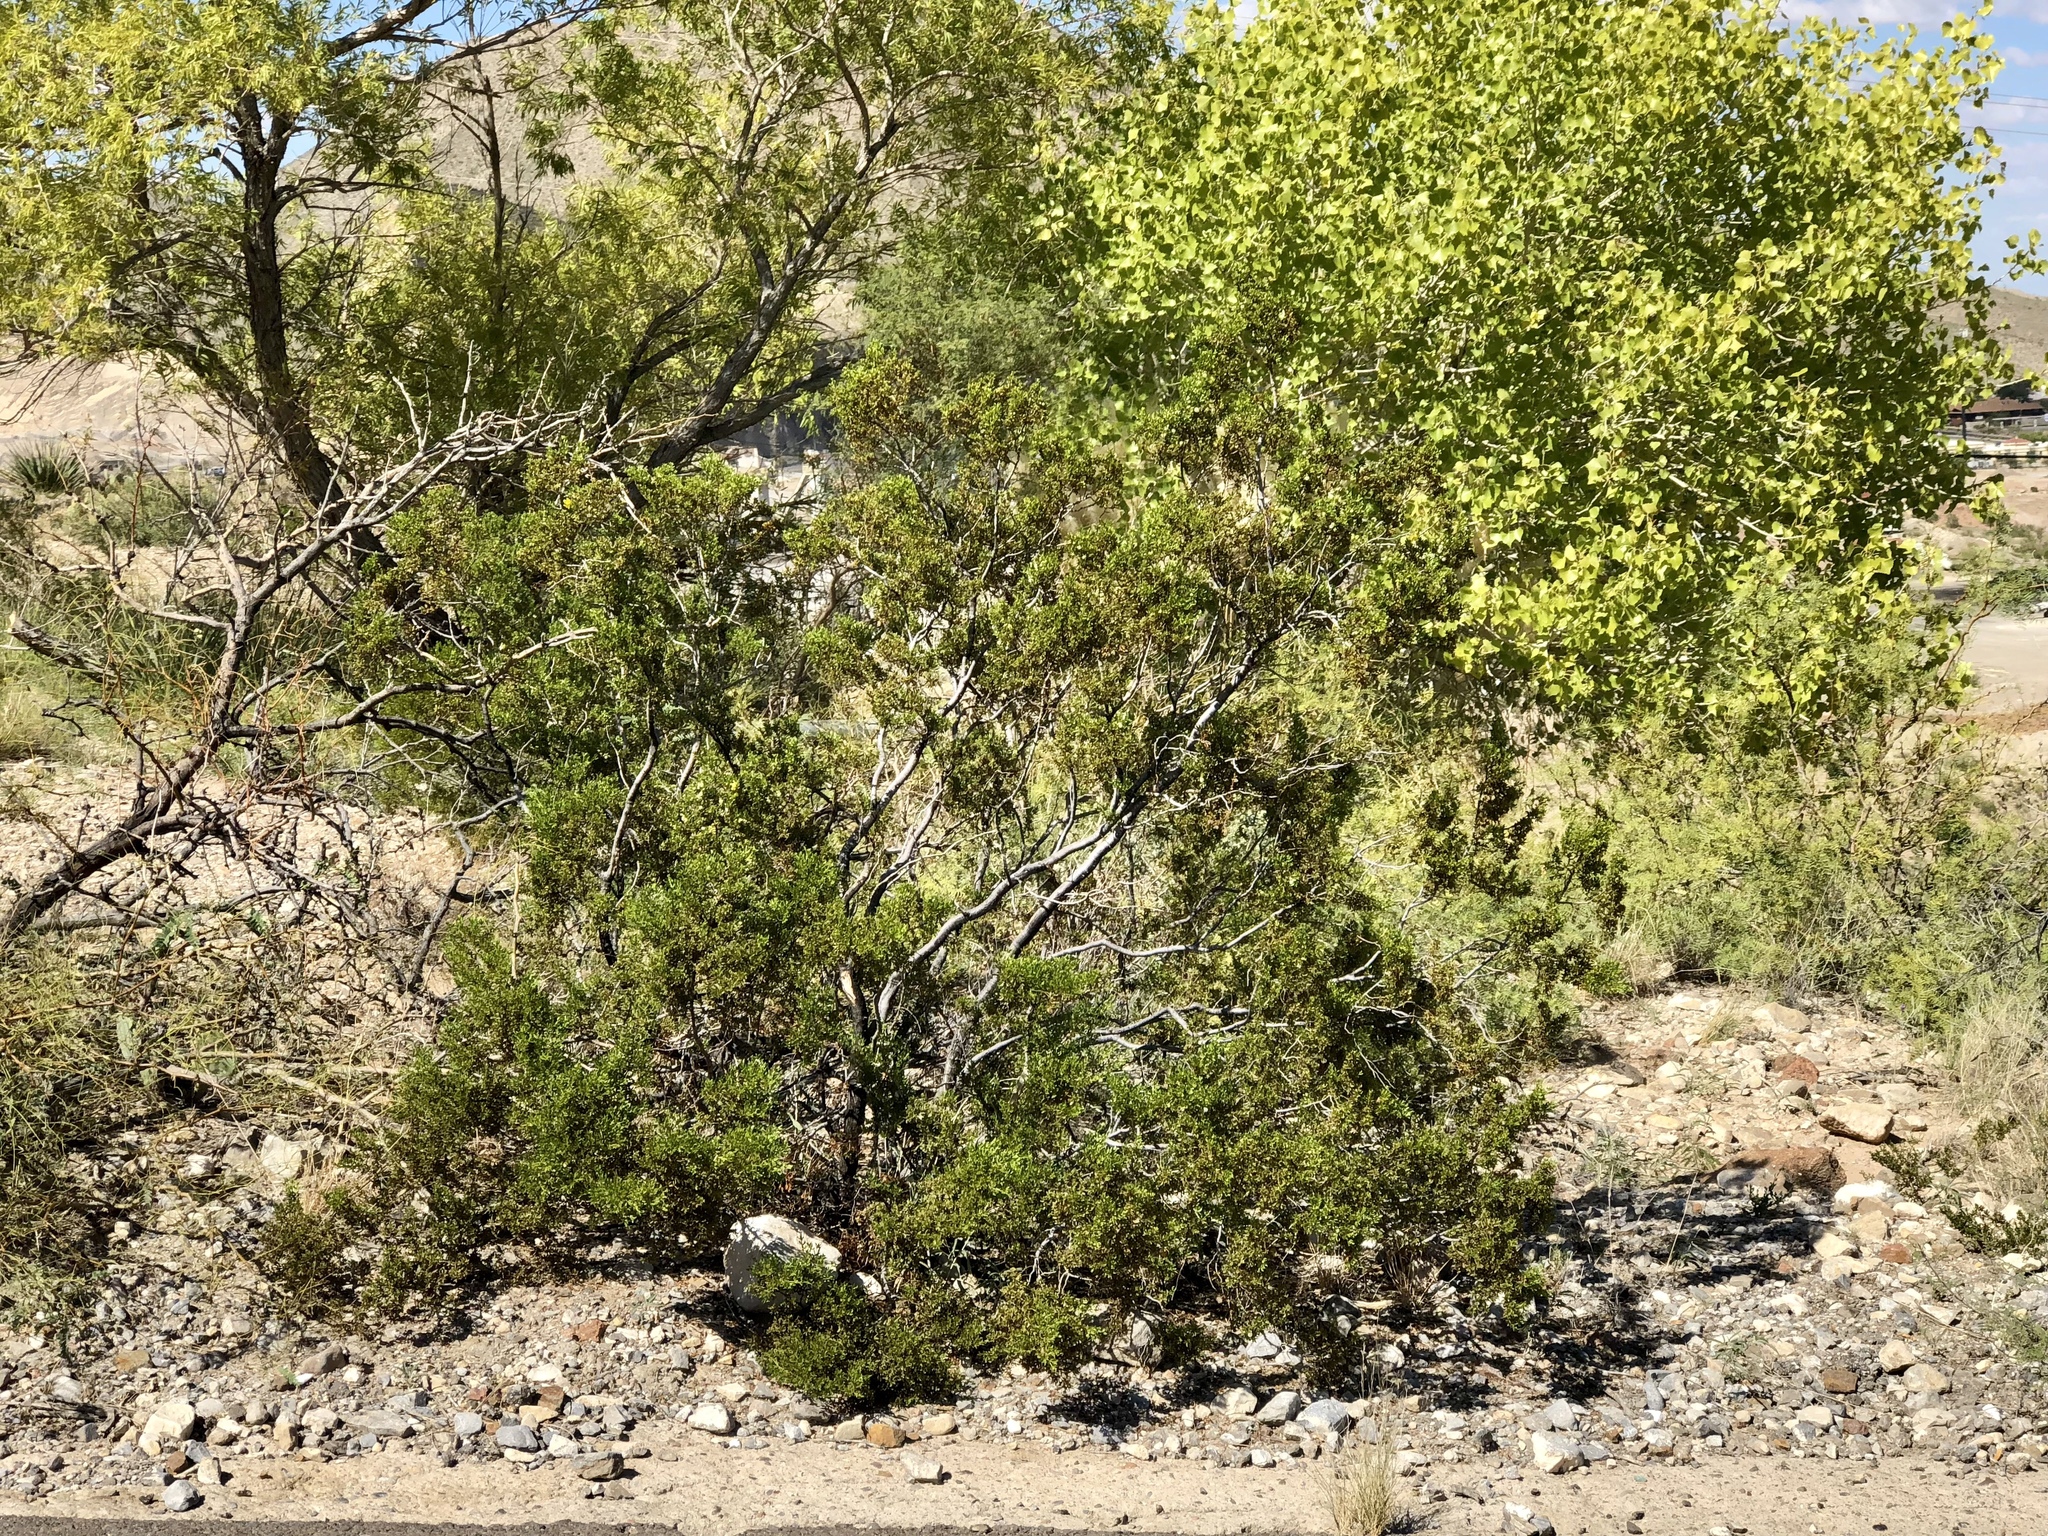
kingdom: Plantae
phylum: Tracheophyta
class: Magnoliopsida
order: Zygophyllales
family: Zygophyllaceae
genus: Larrea
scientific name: Larrea tridentata
